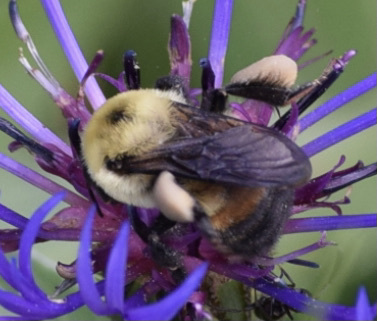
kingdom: Animalia
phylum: Arthropoda
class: Insecta
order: Hymenoptera
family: Apidae
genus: Bombus
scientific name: Bombus griseocollis
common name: Brown-belted bumble bee
